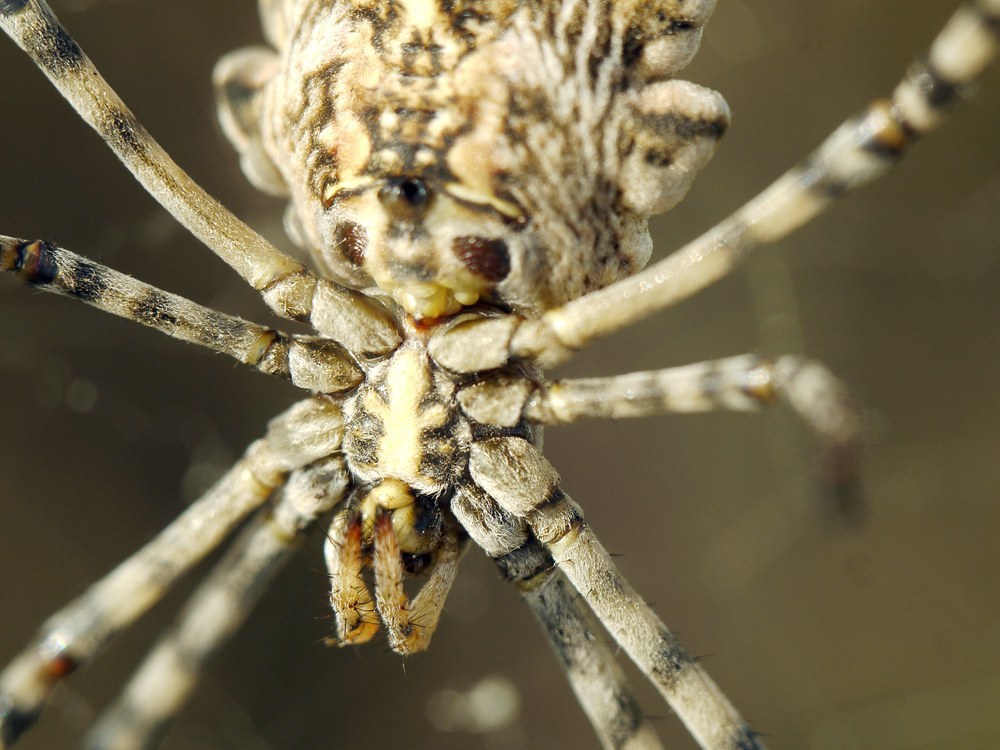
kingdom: Animalia
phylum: Arthropoda
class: Arachnida
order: Araneae
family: Araneidae
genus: Argiope
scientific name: Argiope lobata
